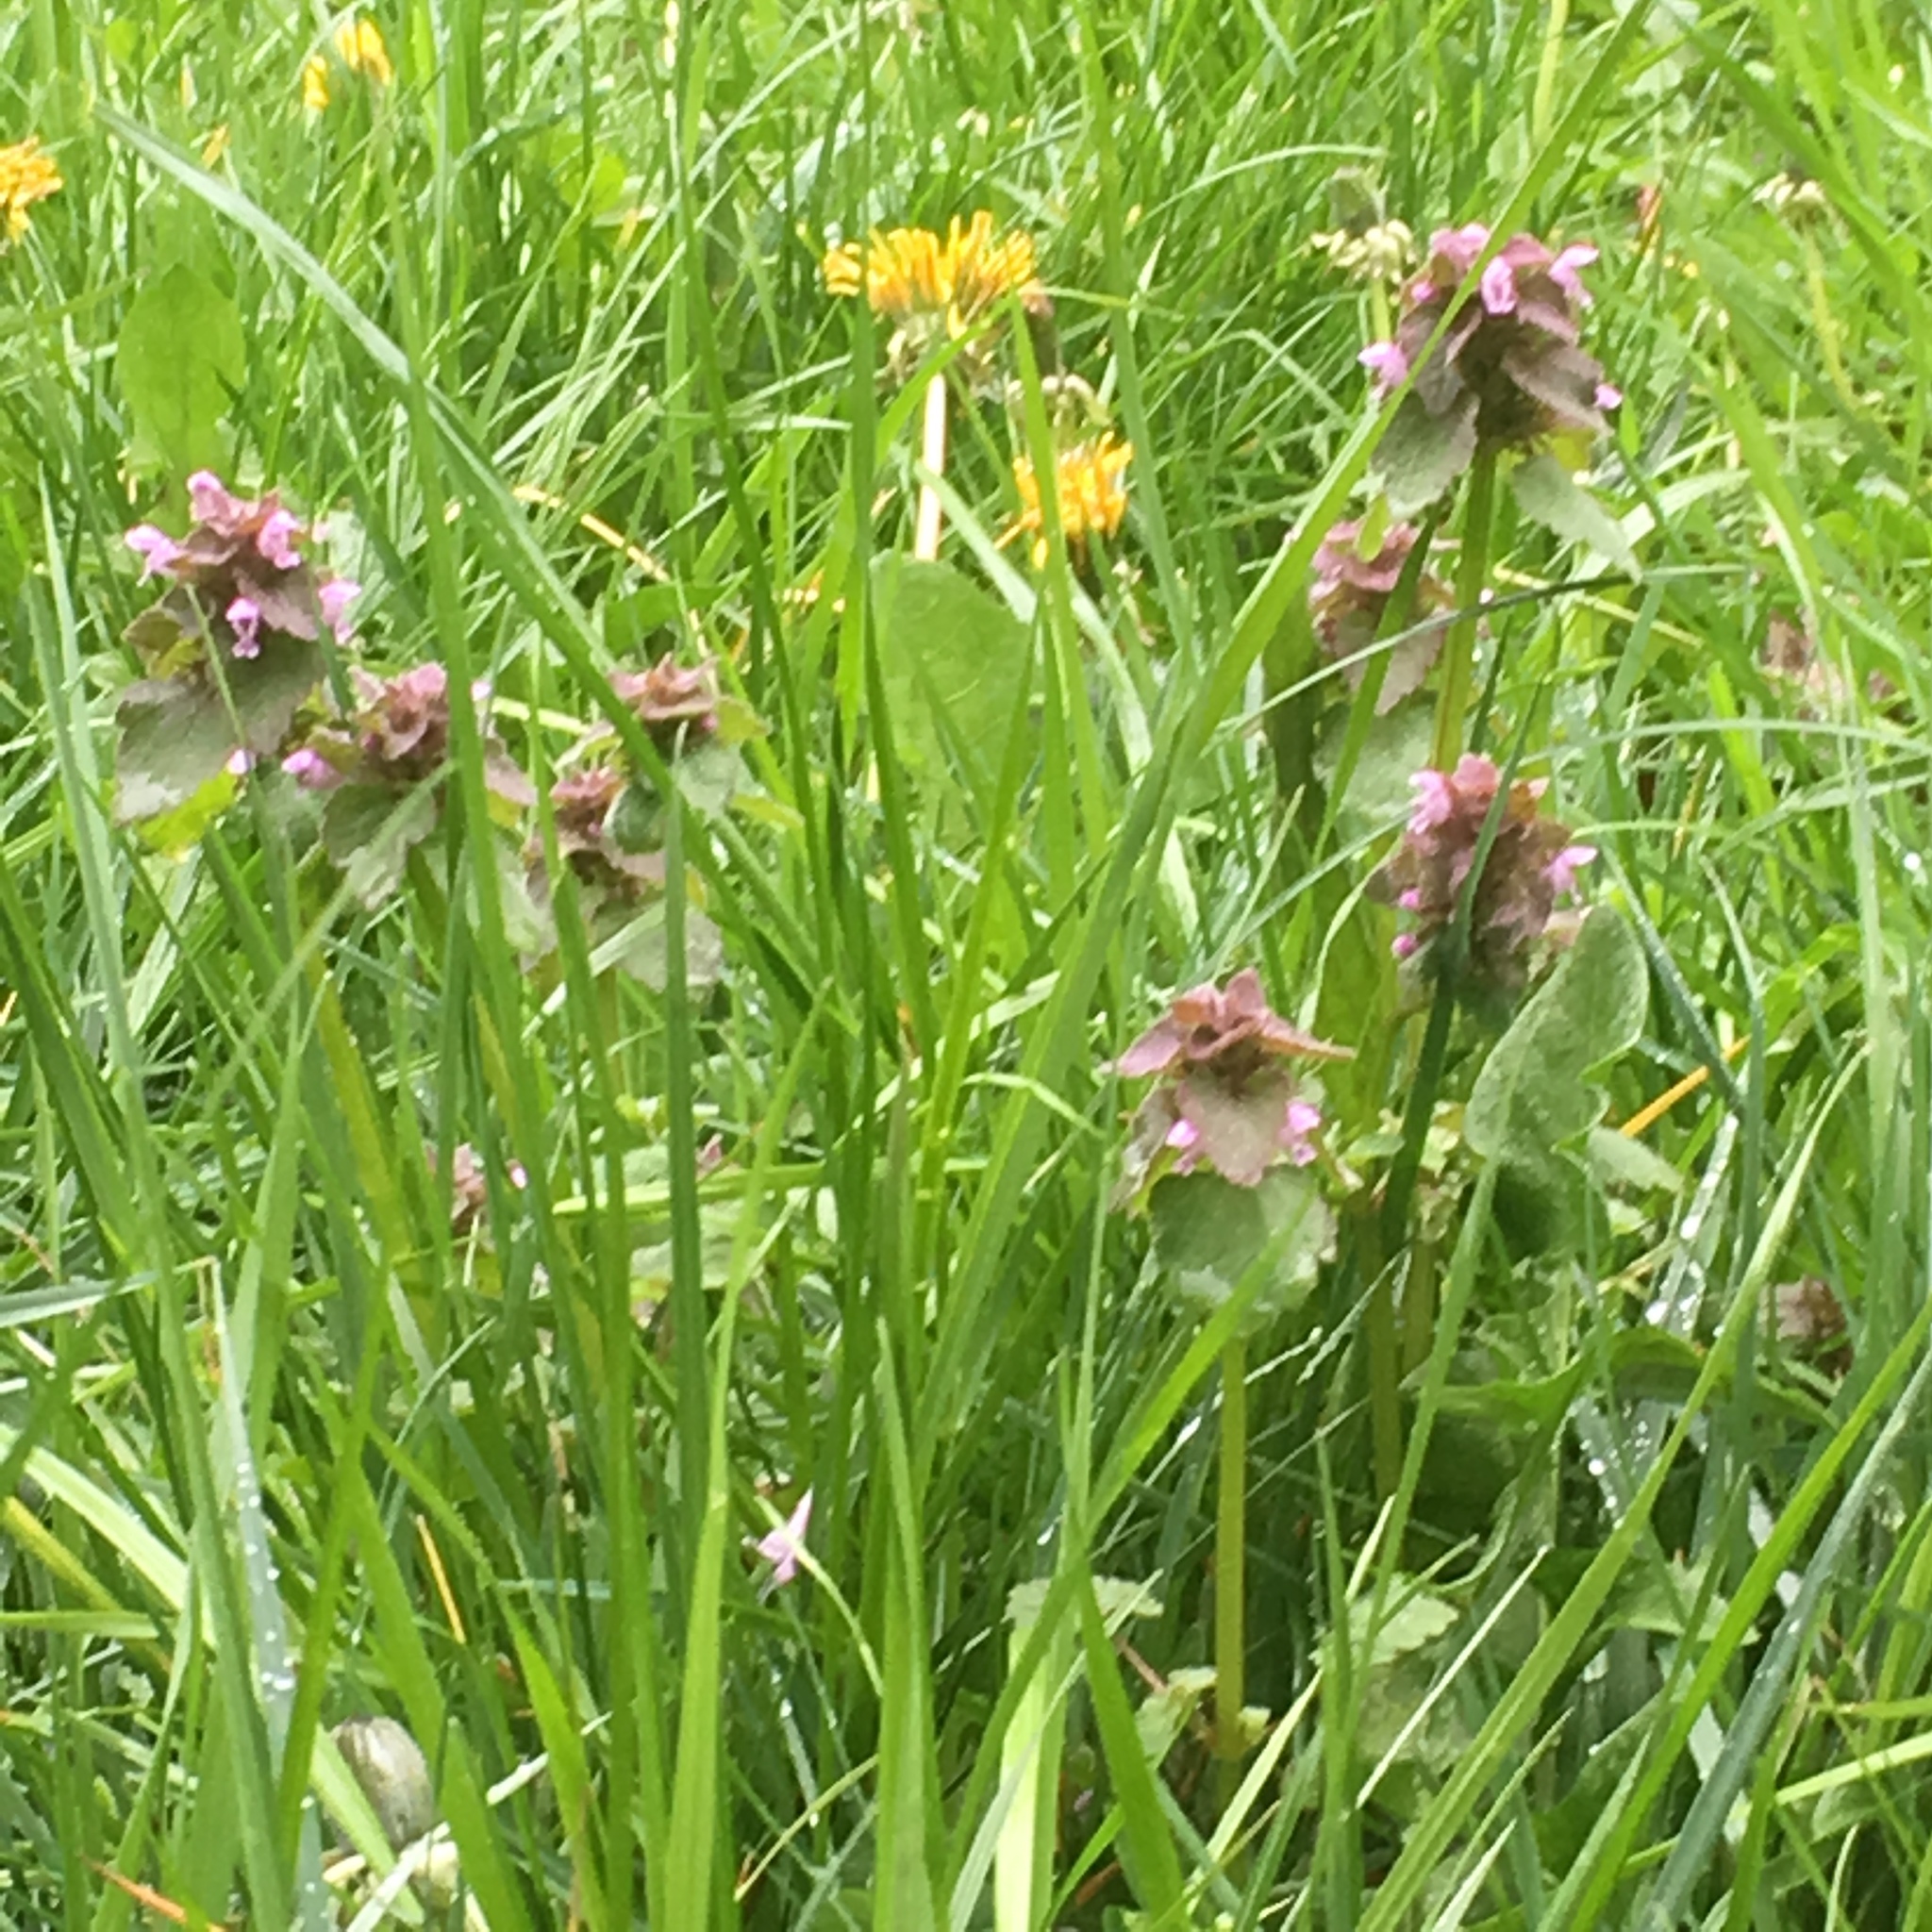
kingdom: Plantae
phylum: Tracheophyta
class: Magnoliopsida
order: Lamiales
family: Lamiaceae
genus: Lamium
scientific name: Lamium purpureum
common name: Red dead-nettle
